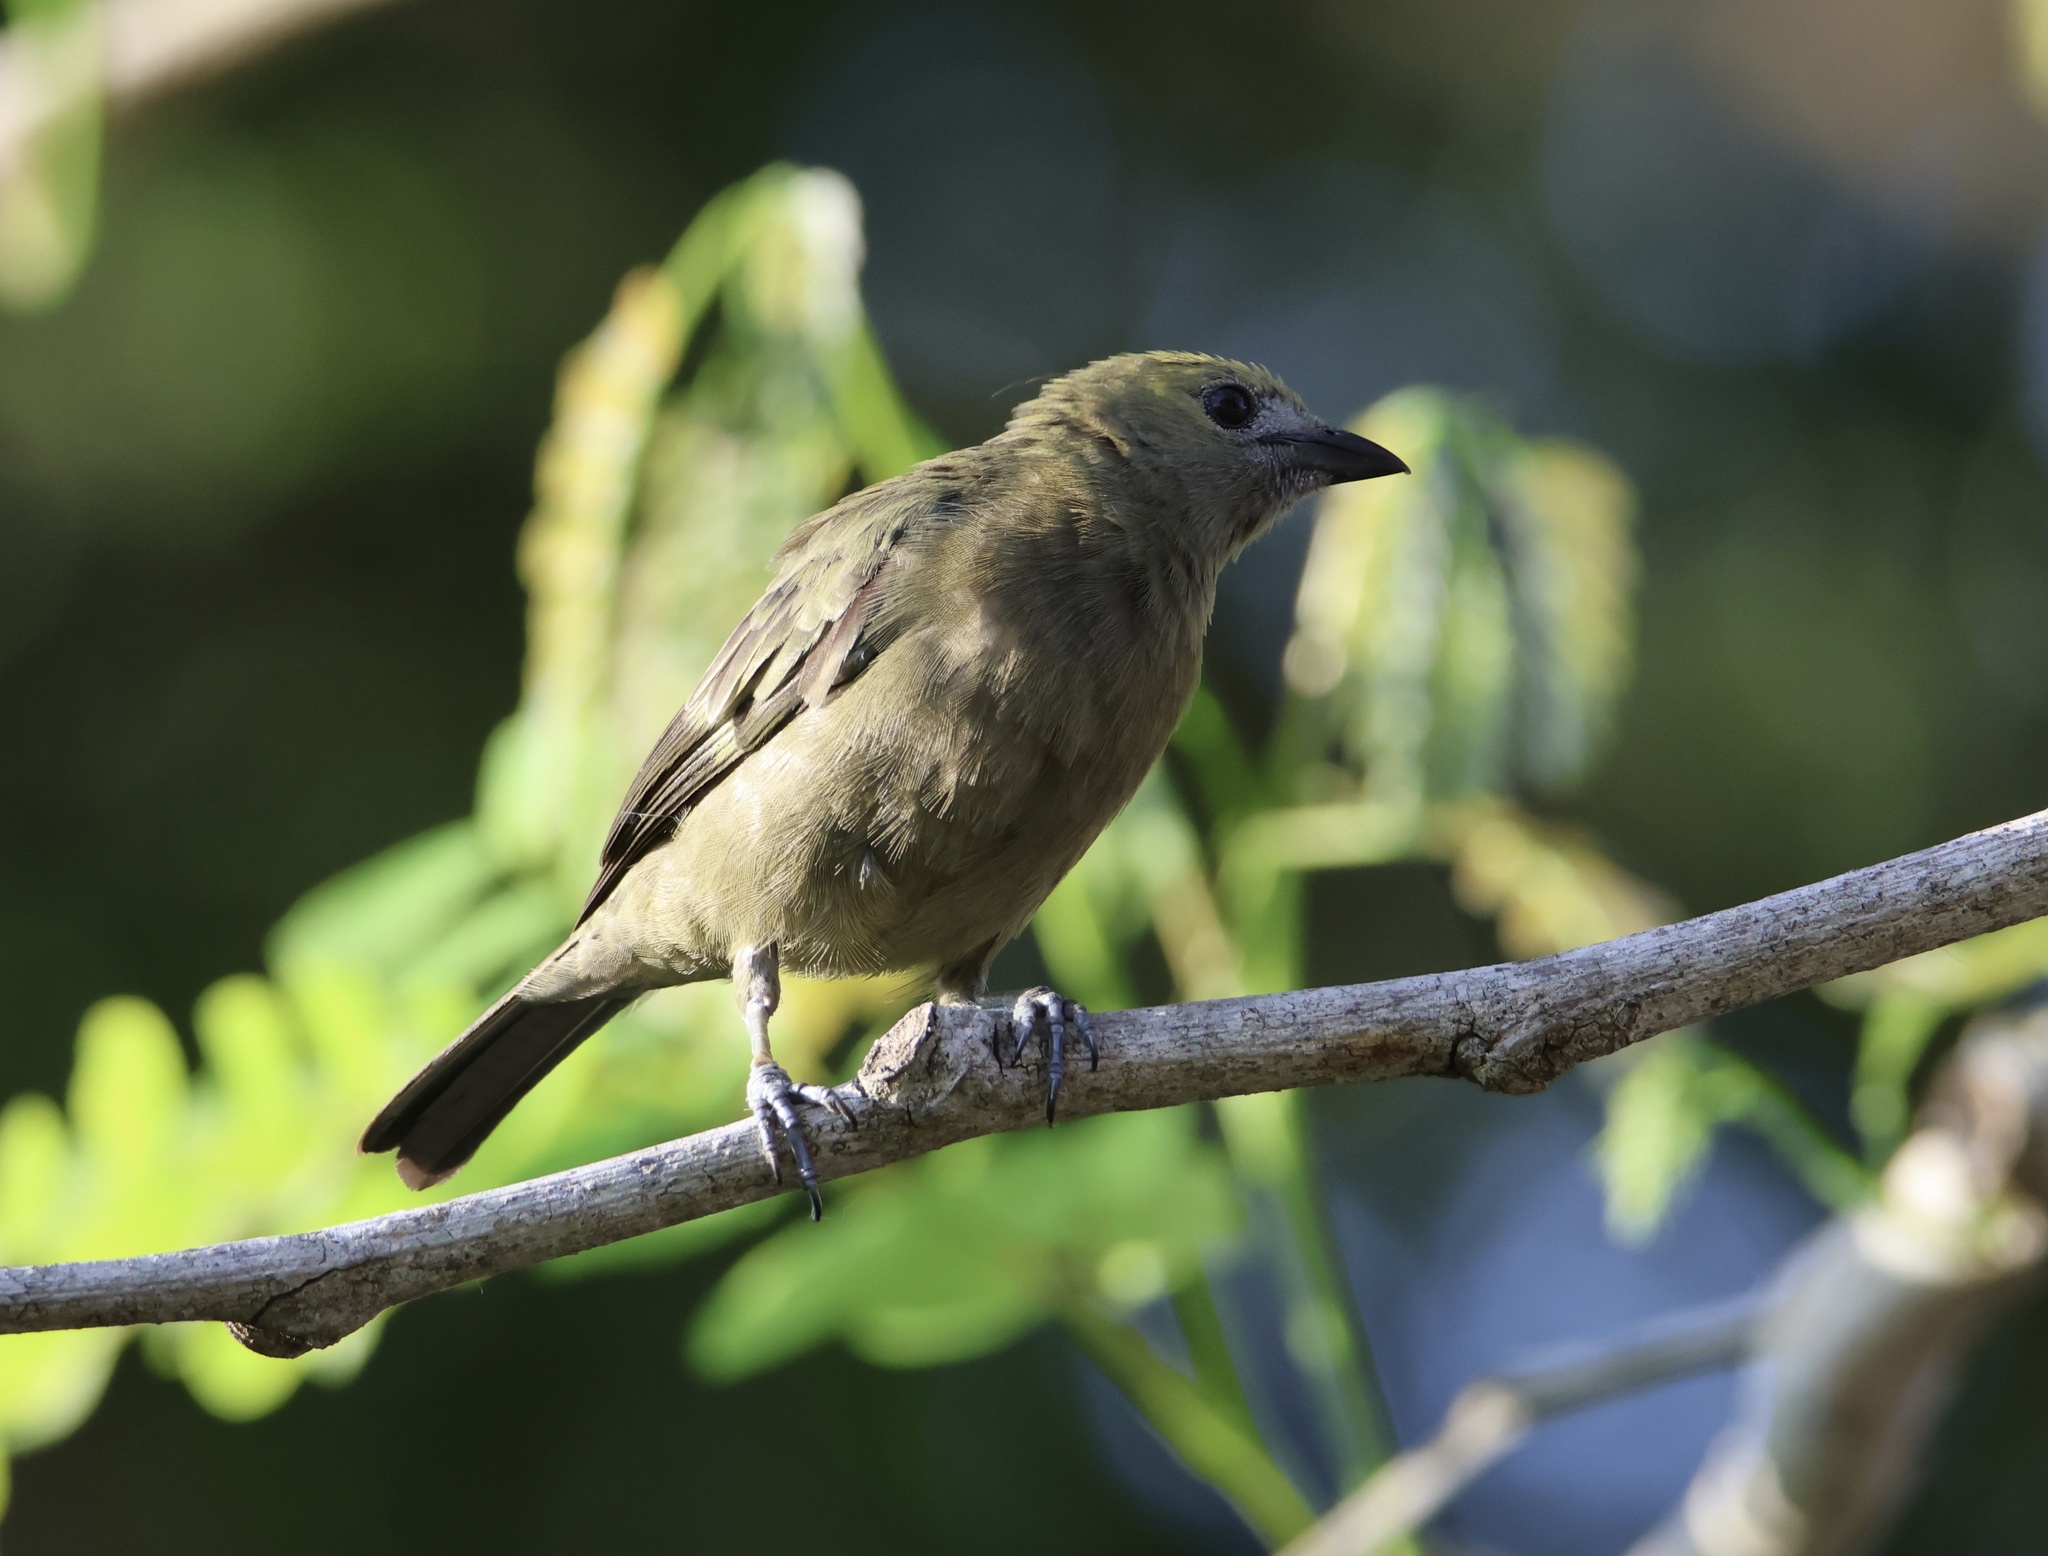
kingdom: Animalia
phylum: Chordata
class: Aves
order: Passeriformes
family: Thraupidae
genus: Thraupis
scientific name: Thraupis palmarum
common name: Palm tanager
